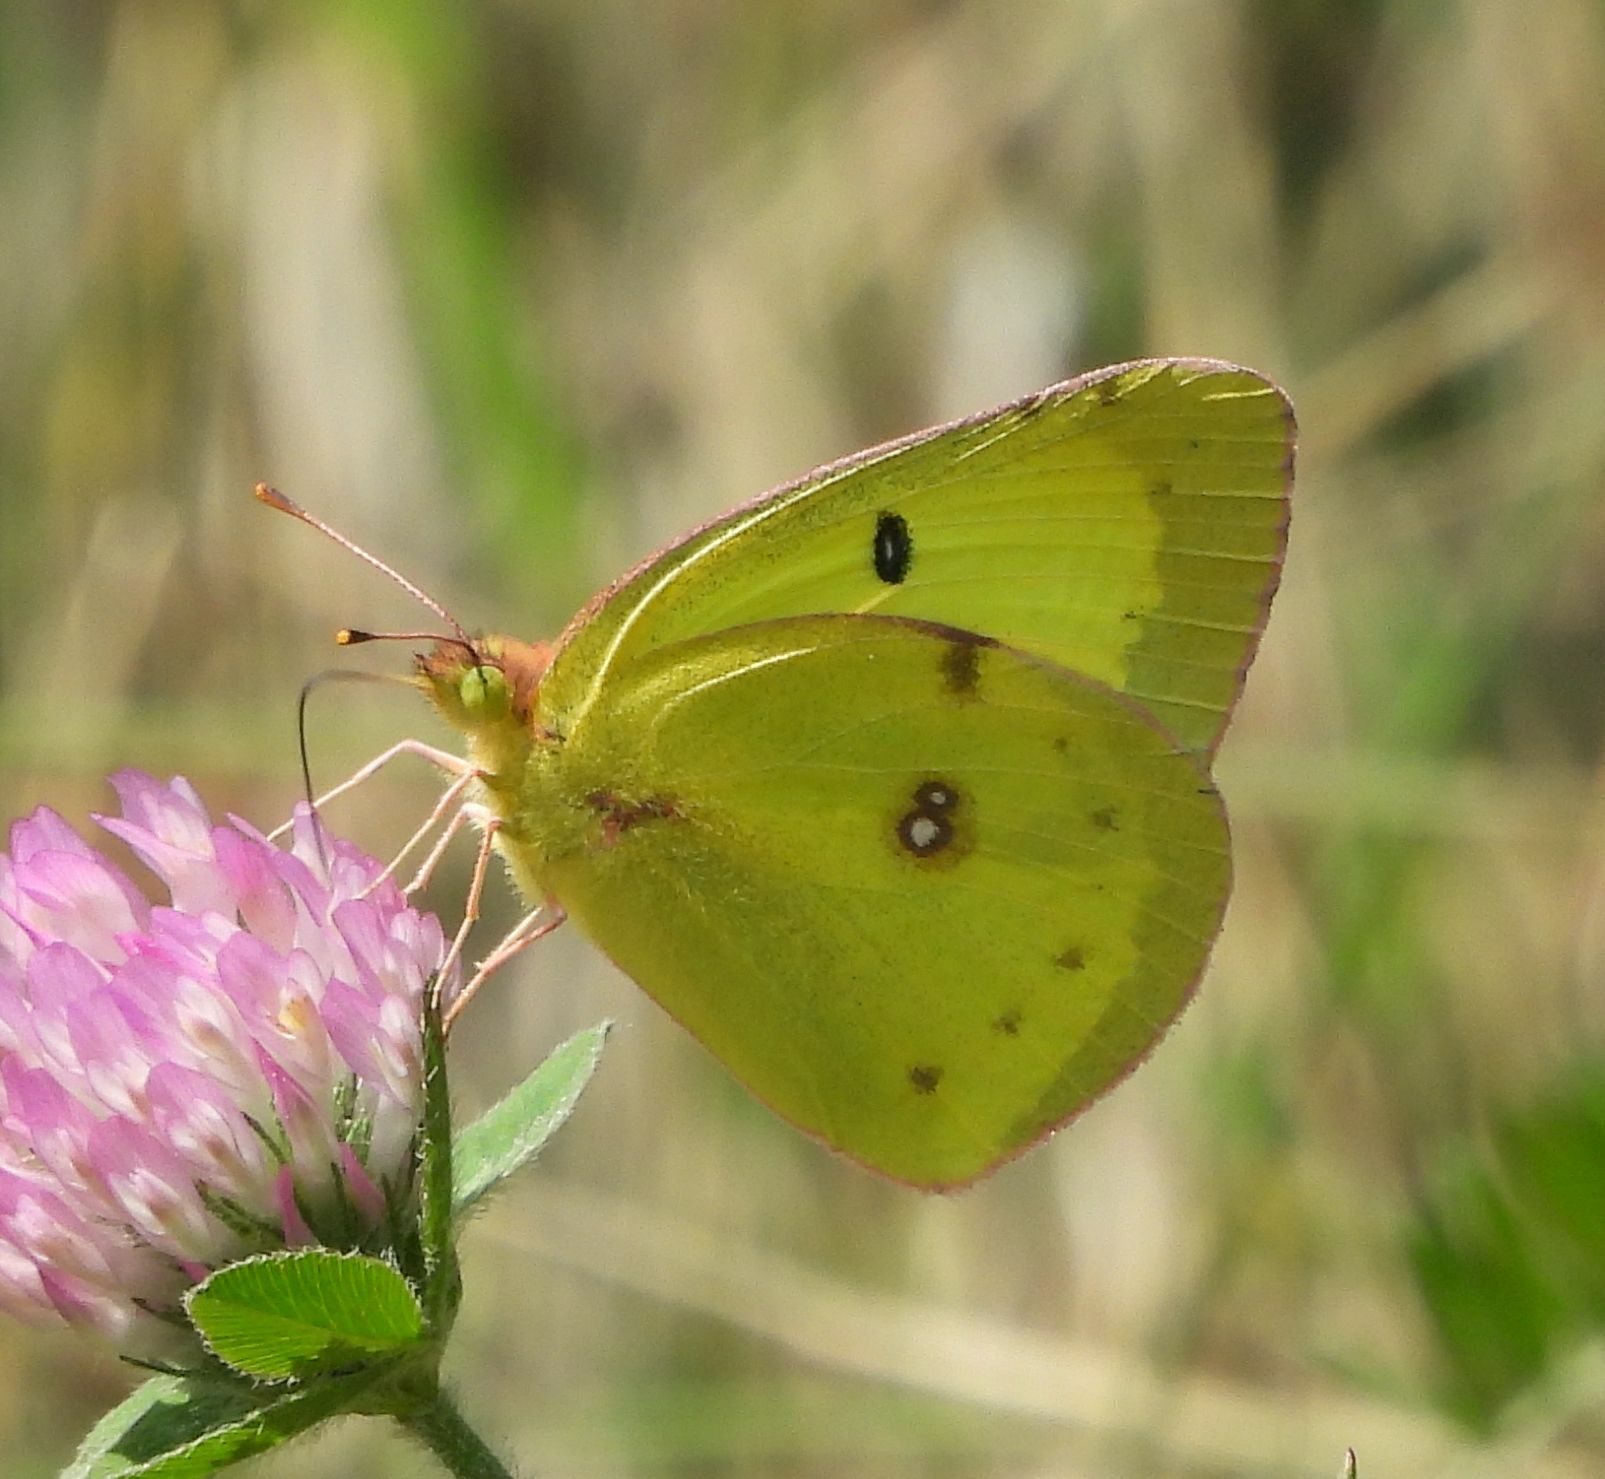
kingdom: Animalia
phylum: Arthropoda
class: Insecta
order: Lepidoptera
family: Pieridae
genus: Colias
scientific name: Colias philodice
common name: Clouded sulphur
